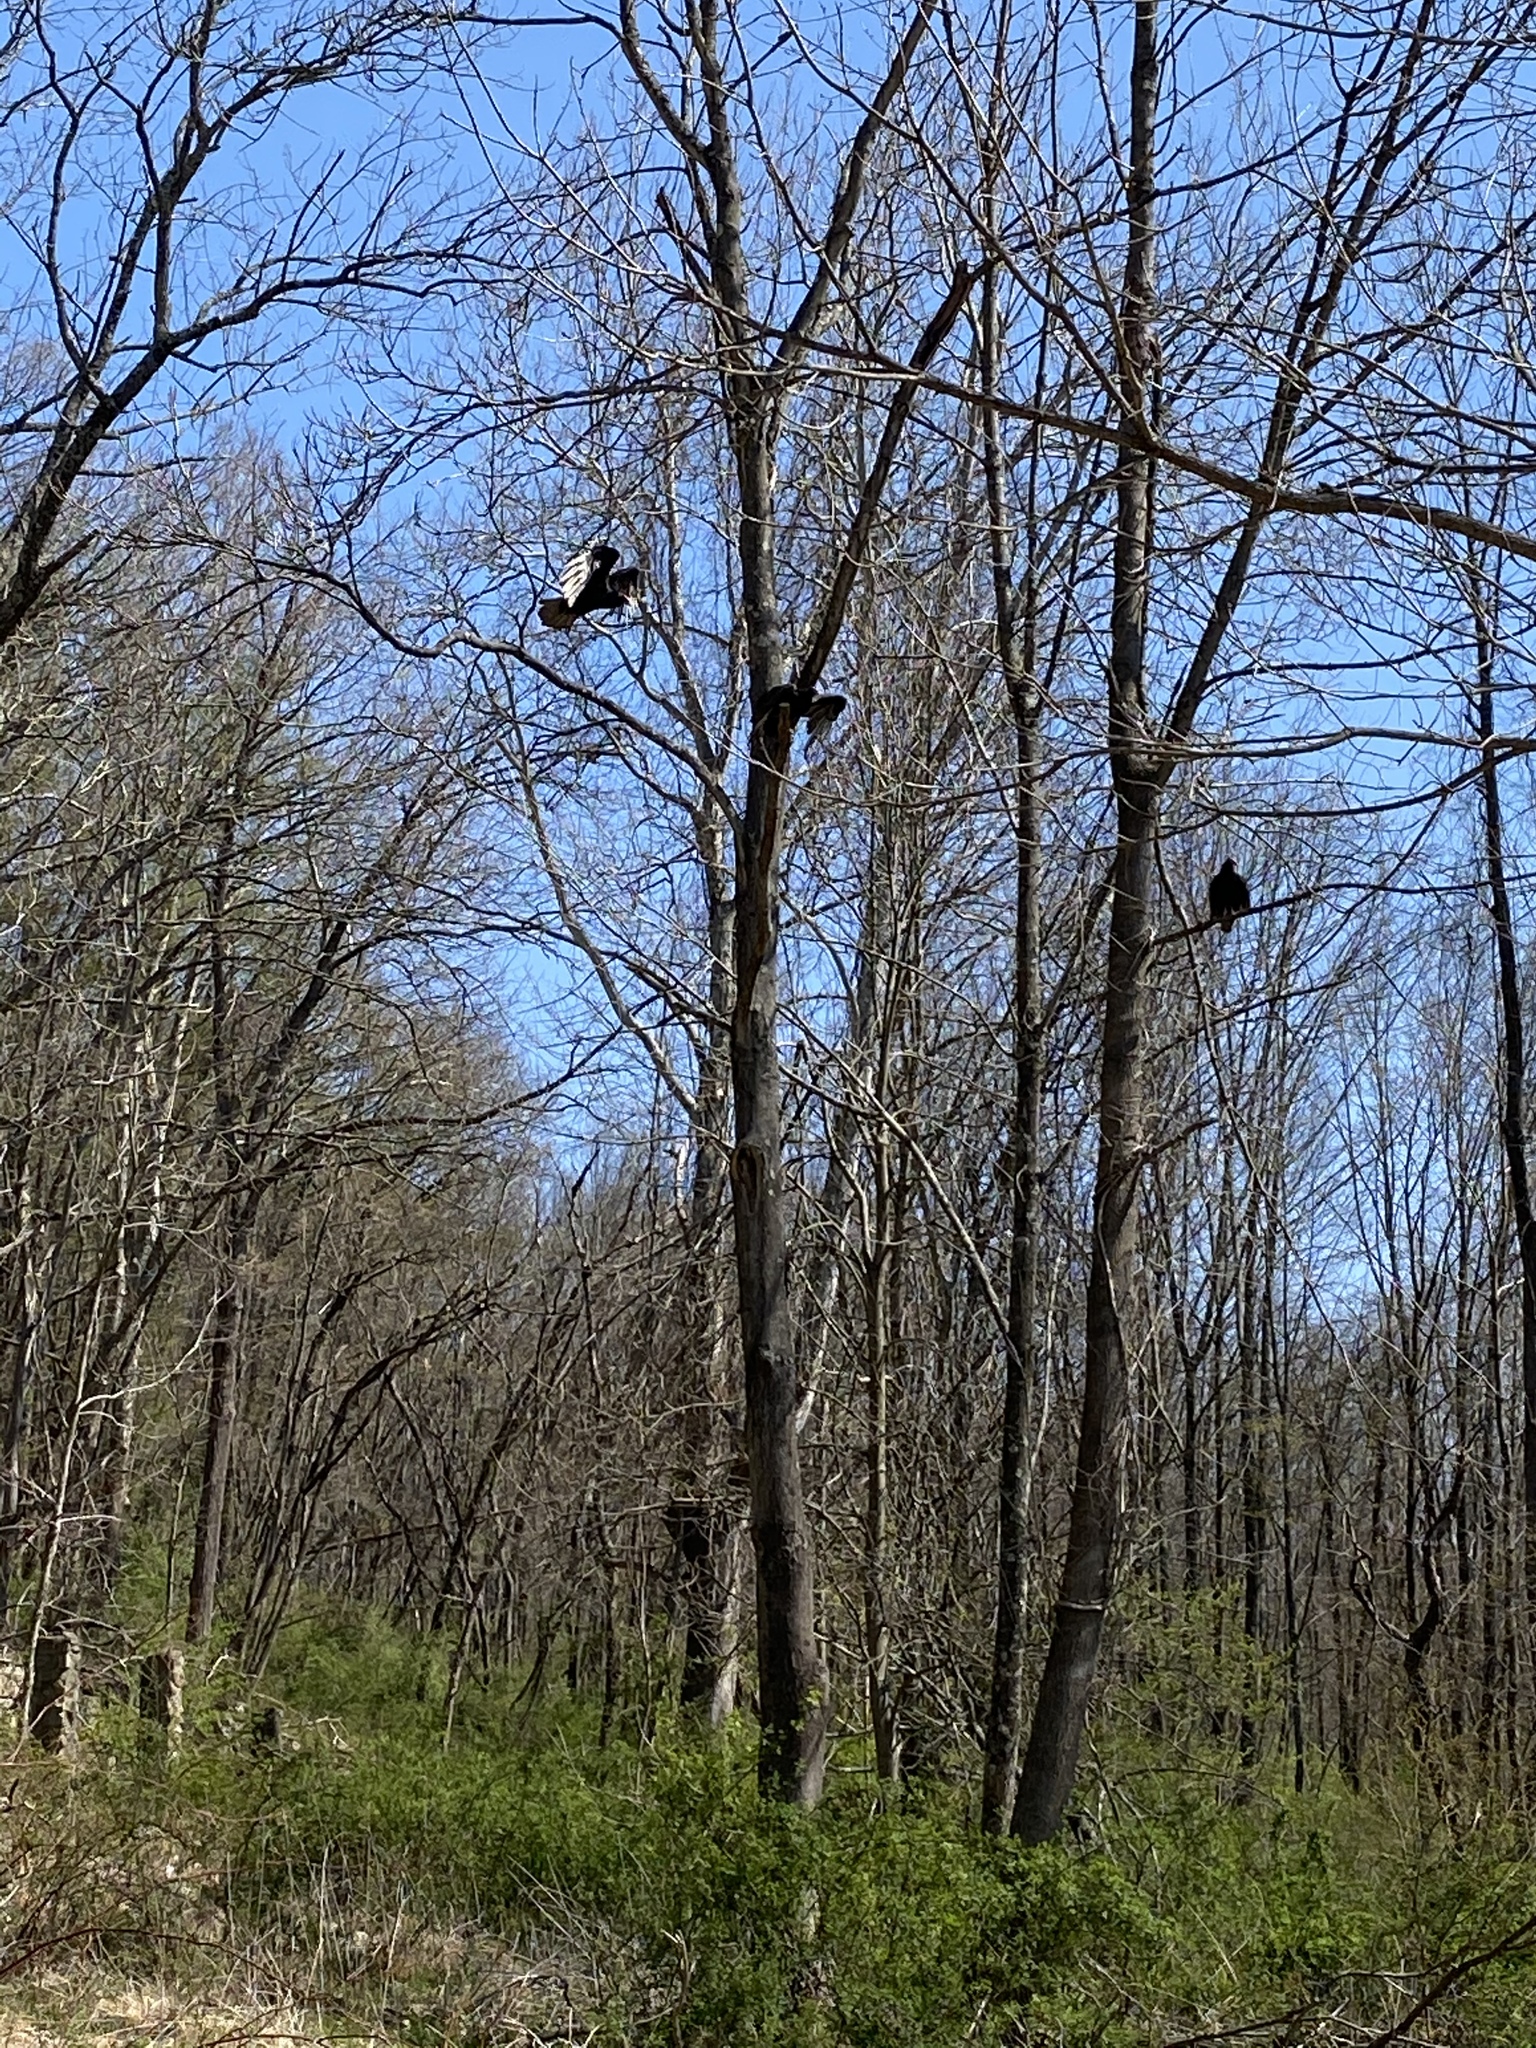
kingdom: Animalia
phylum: Chordata
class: Aves
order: Accipitriformes
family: Cathartidae
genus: Cathartes
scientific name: Cathartes aura
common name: Turkey vulture
